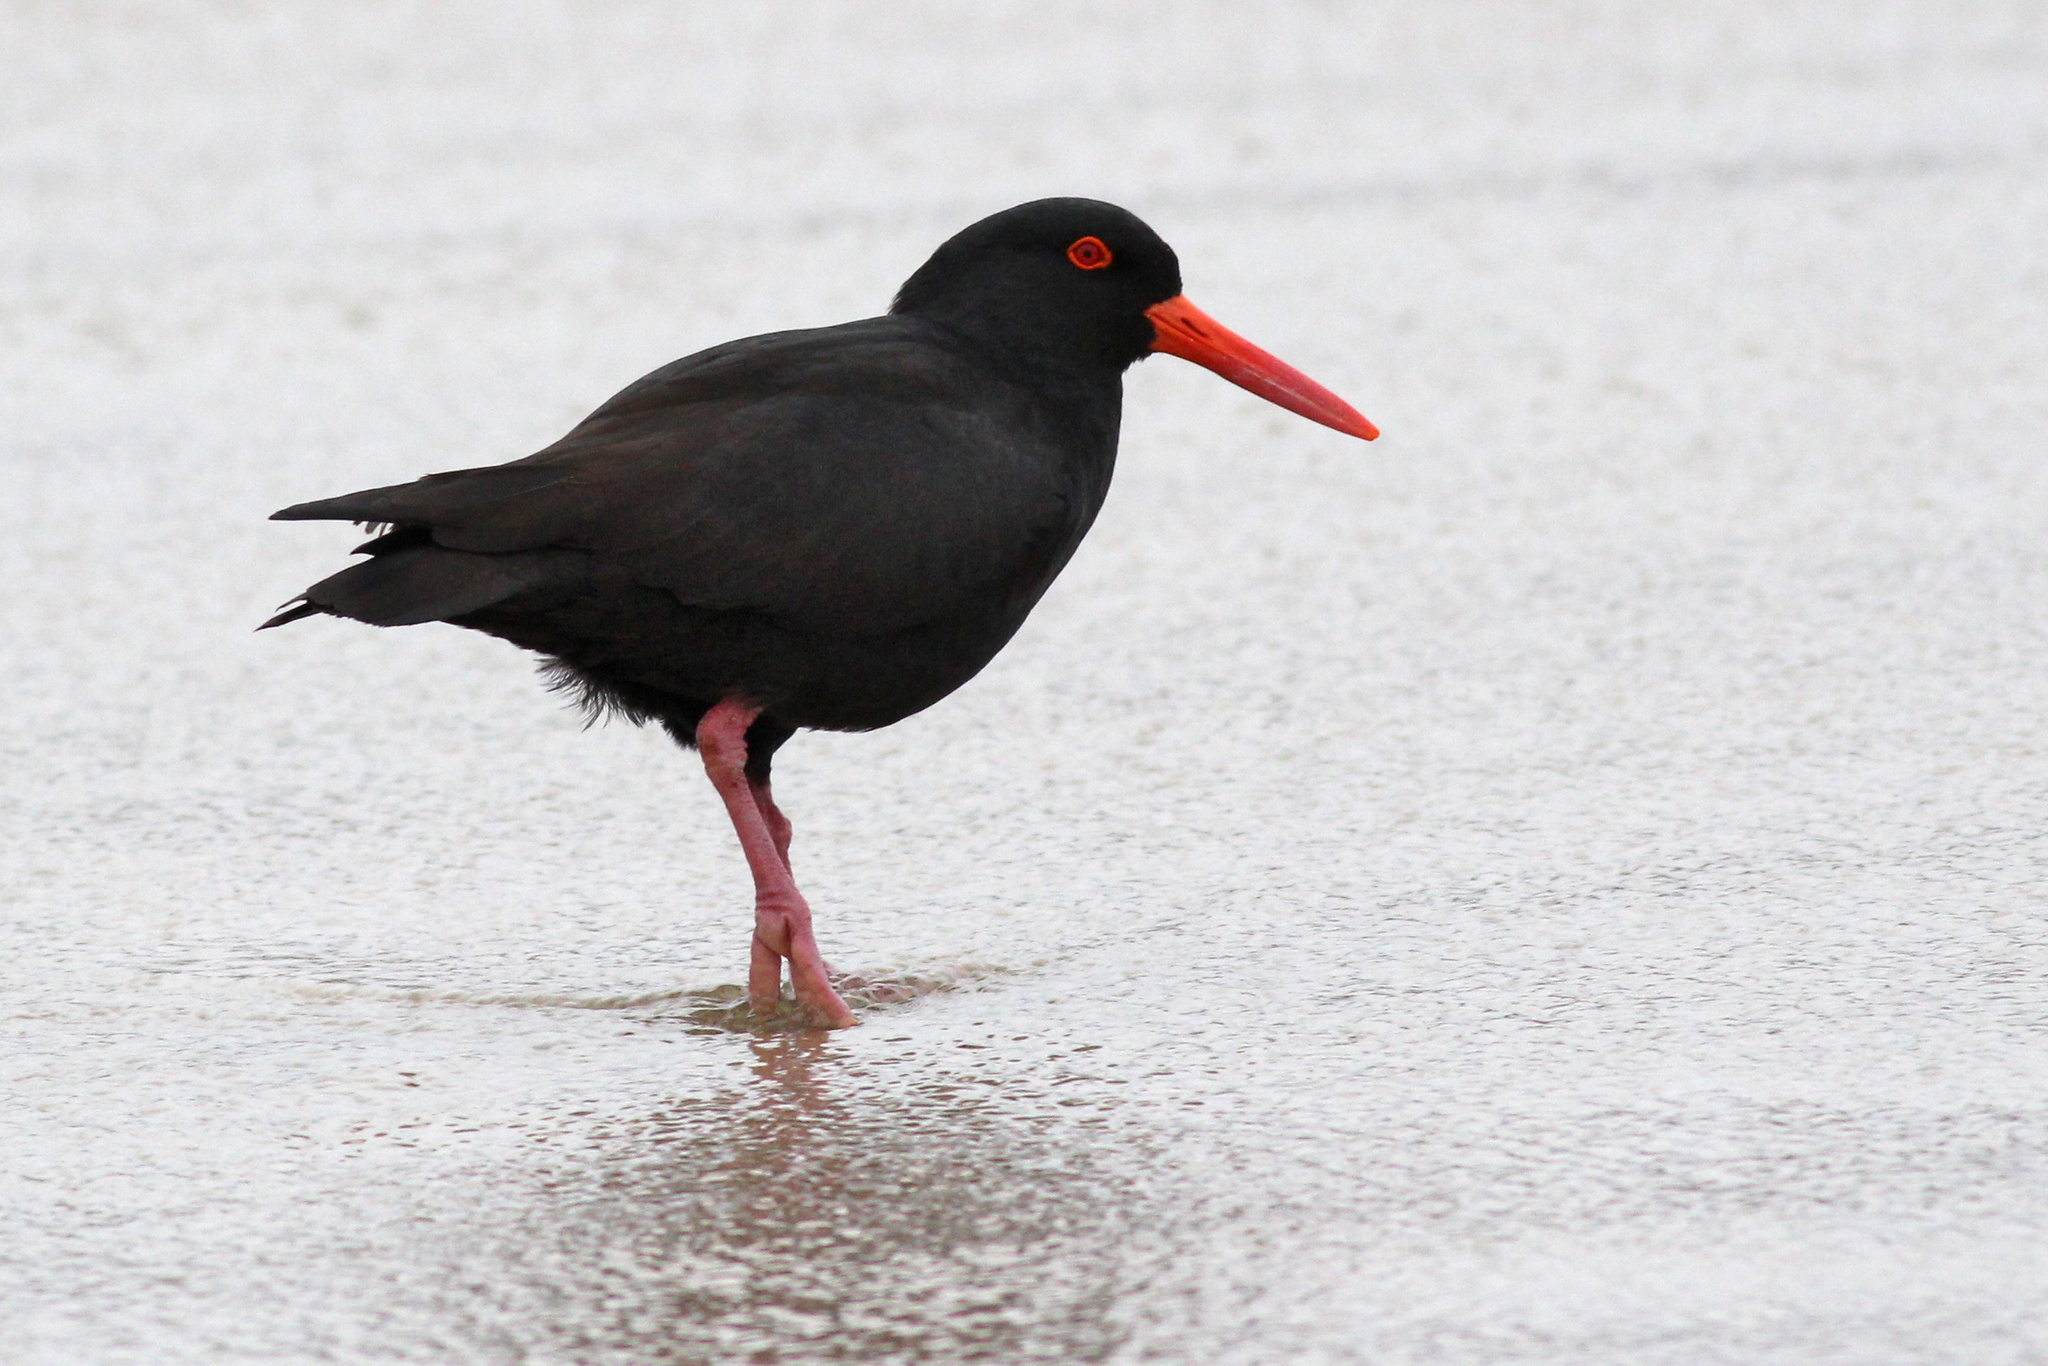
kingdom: Animalia
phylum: Chordata
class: Aves
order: Charadriiformes
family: Haematopodidae
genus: Haematopus
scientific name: Haematopus fuliginosus
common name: Sooty oystercatcher
